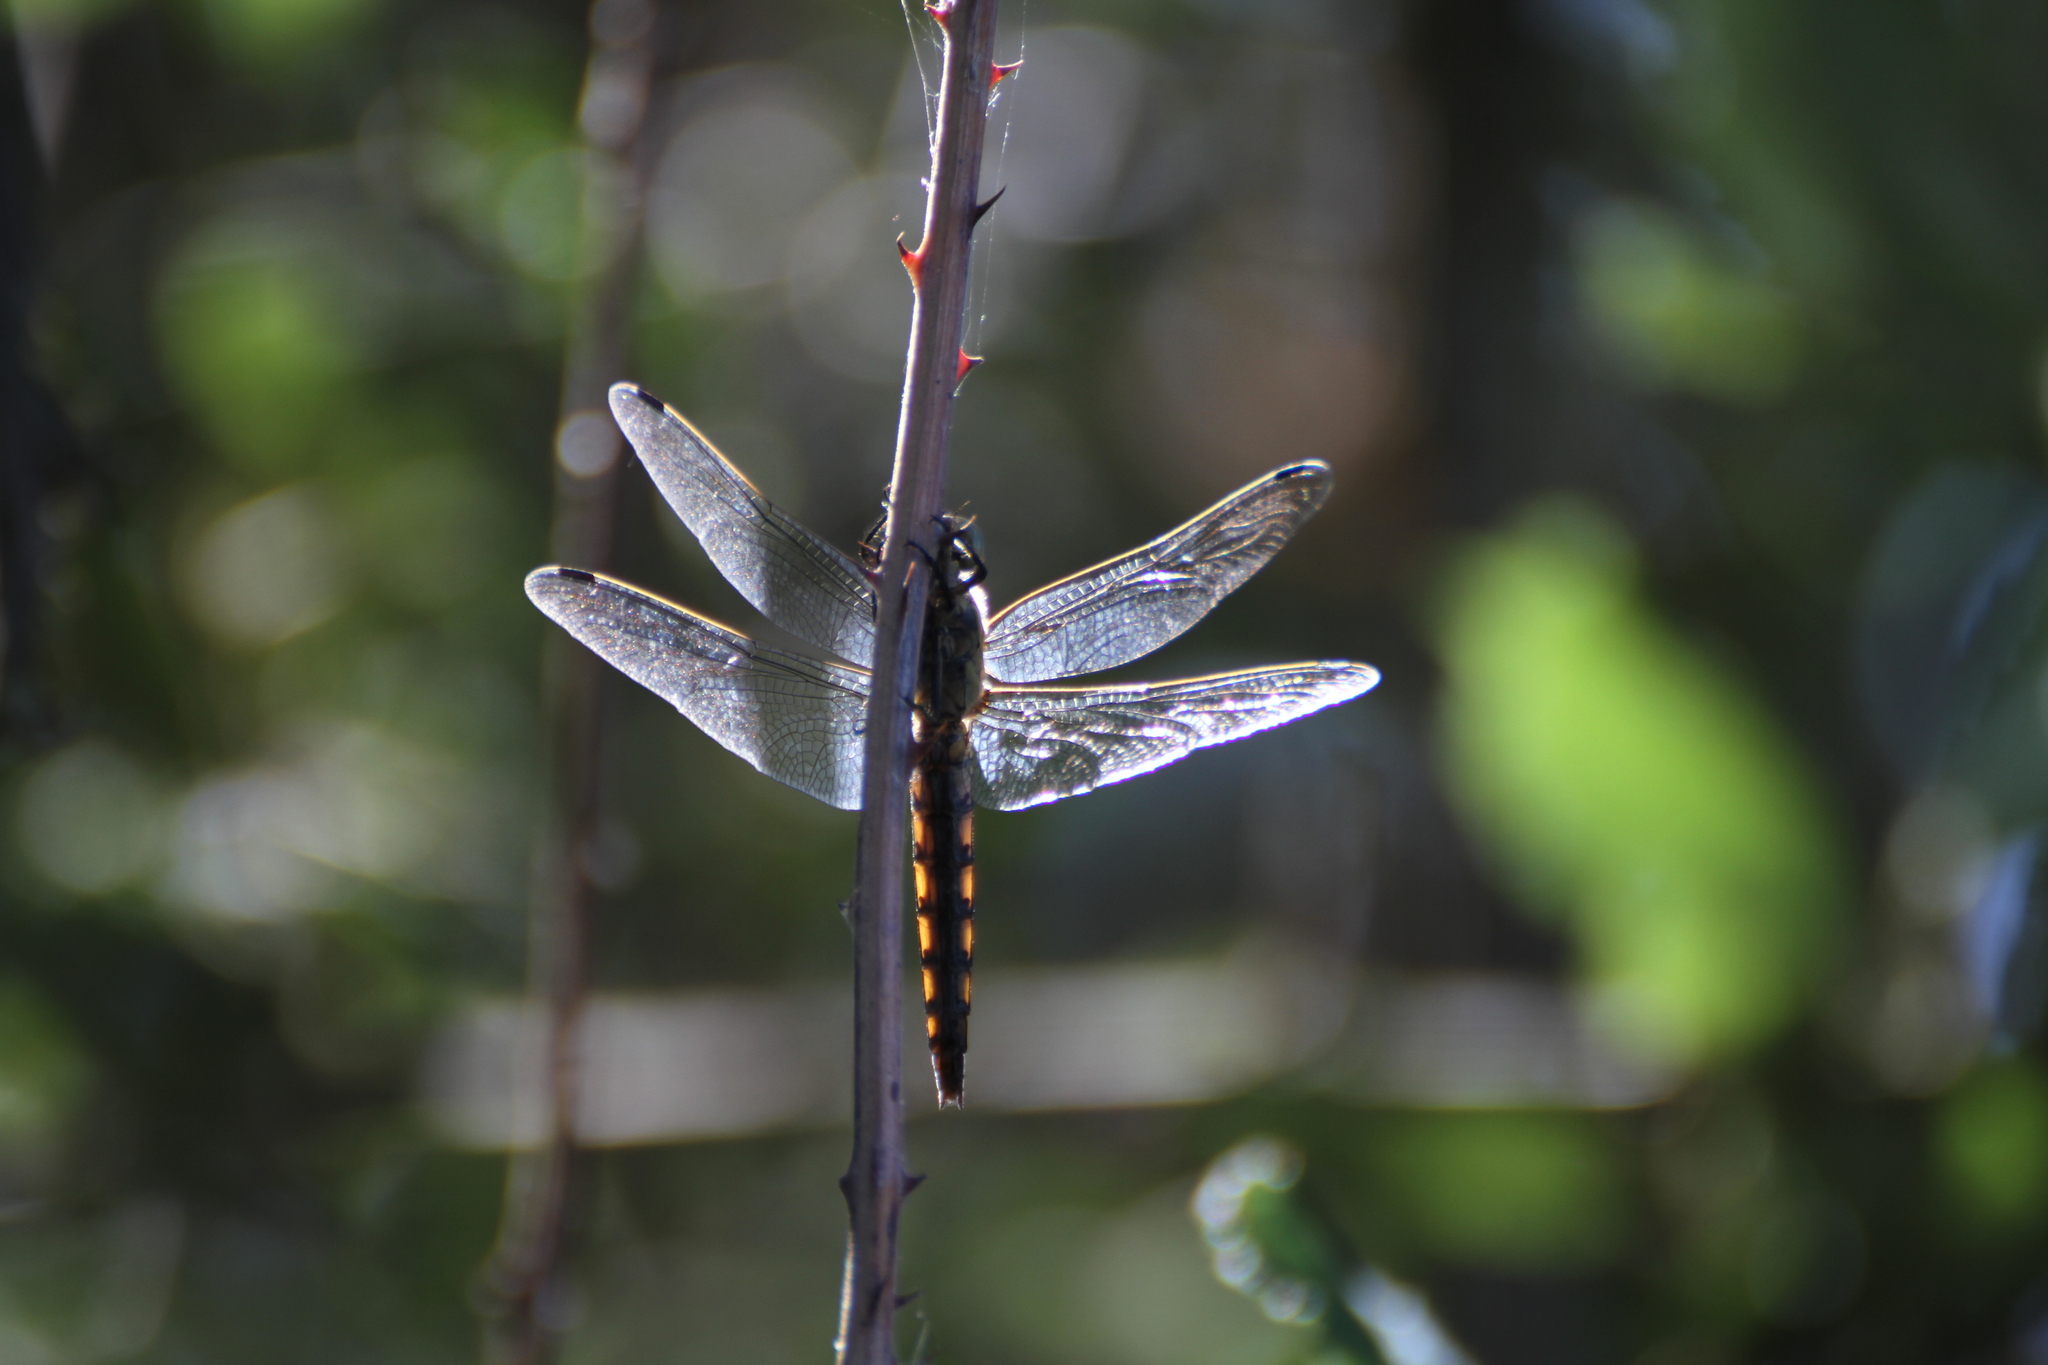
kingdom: Animalia
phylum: Arthropoda
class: Insecta
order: Odonata
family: Libellulidae
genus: Orthetrum
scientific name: Orthetrum cancellatum
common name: Black-tailed skimmer
